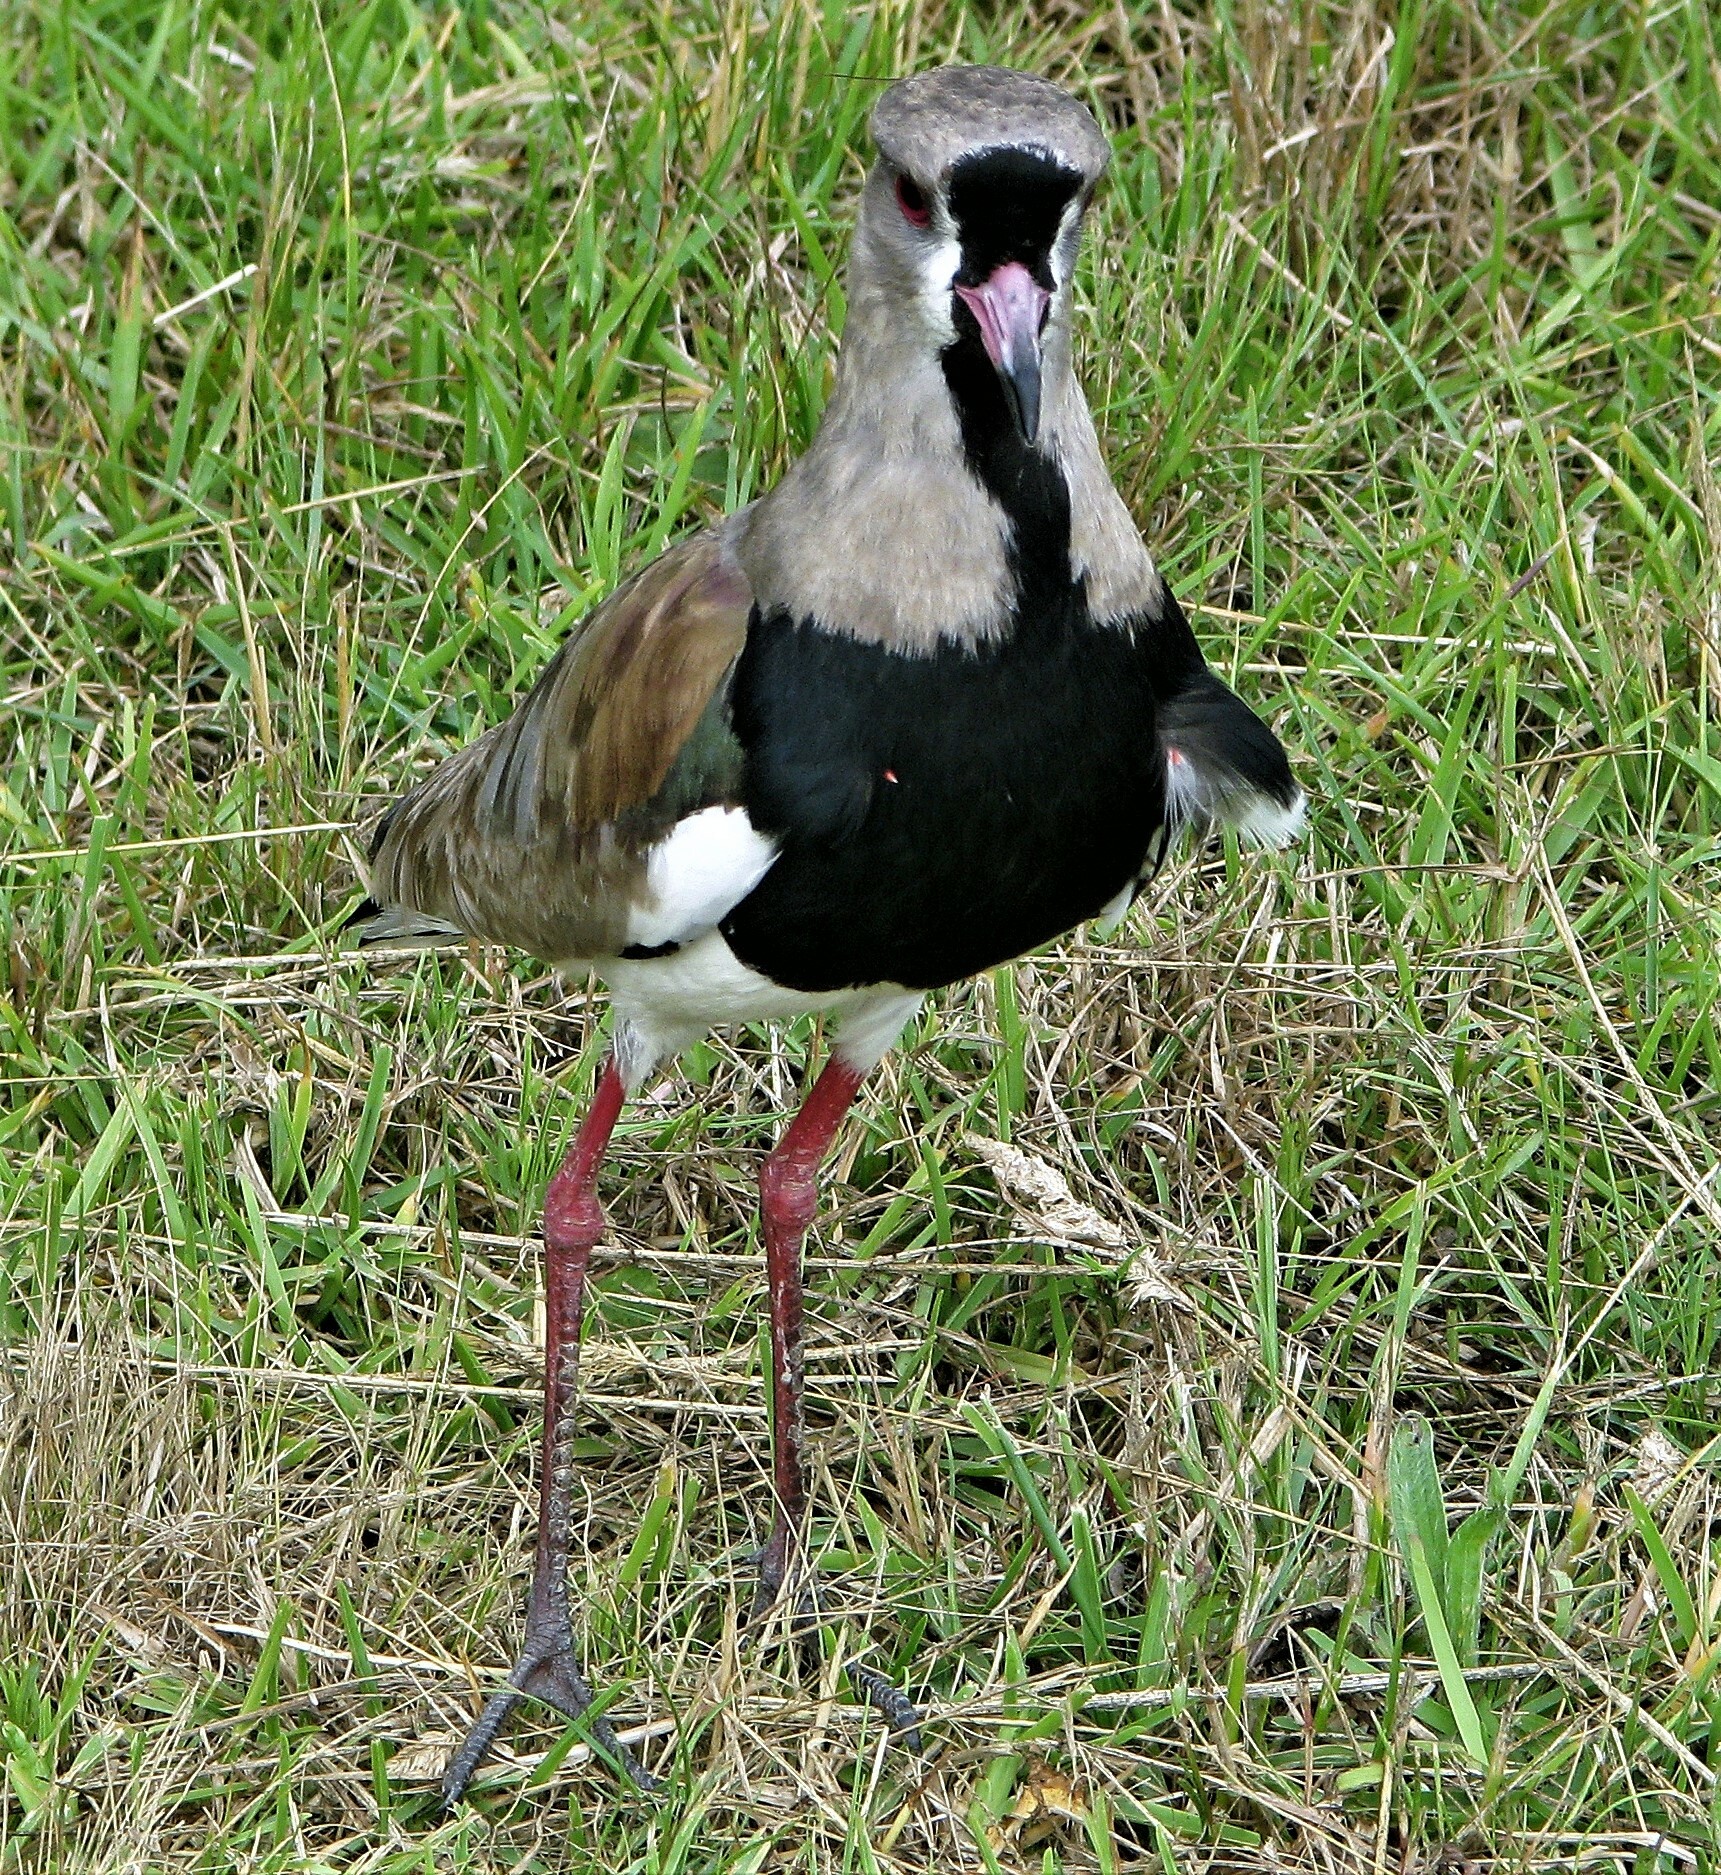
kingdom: Animalia
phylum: Chordata
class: Aves
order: Charadriiformes
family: Charadriidae
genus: Vanellus
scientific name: Vanellus chilensis
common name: Southern lapwing
